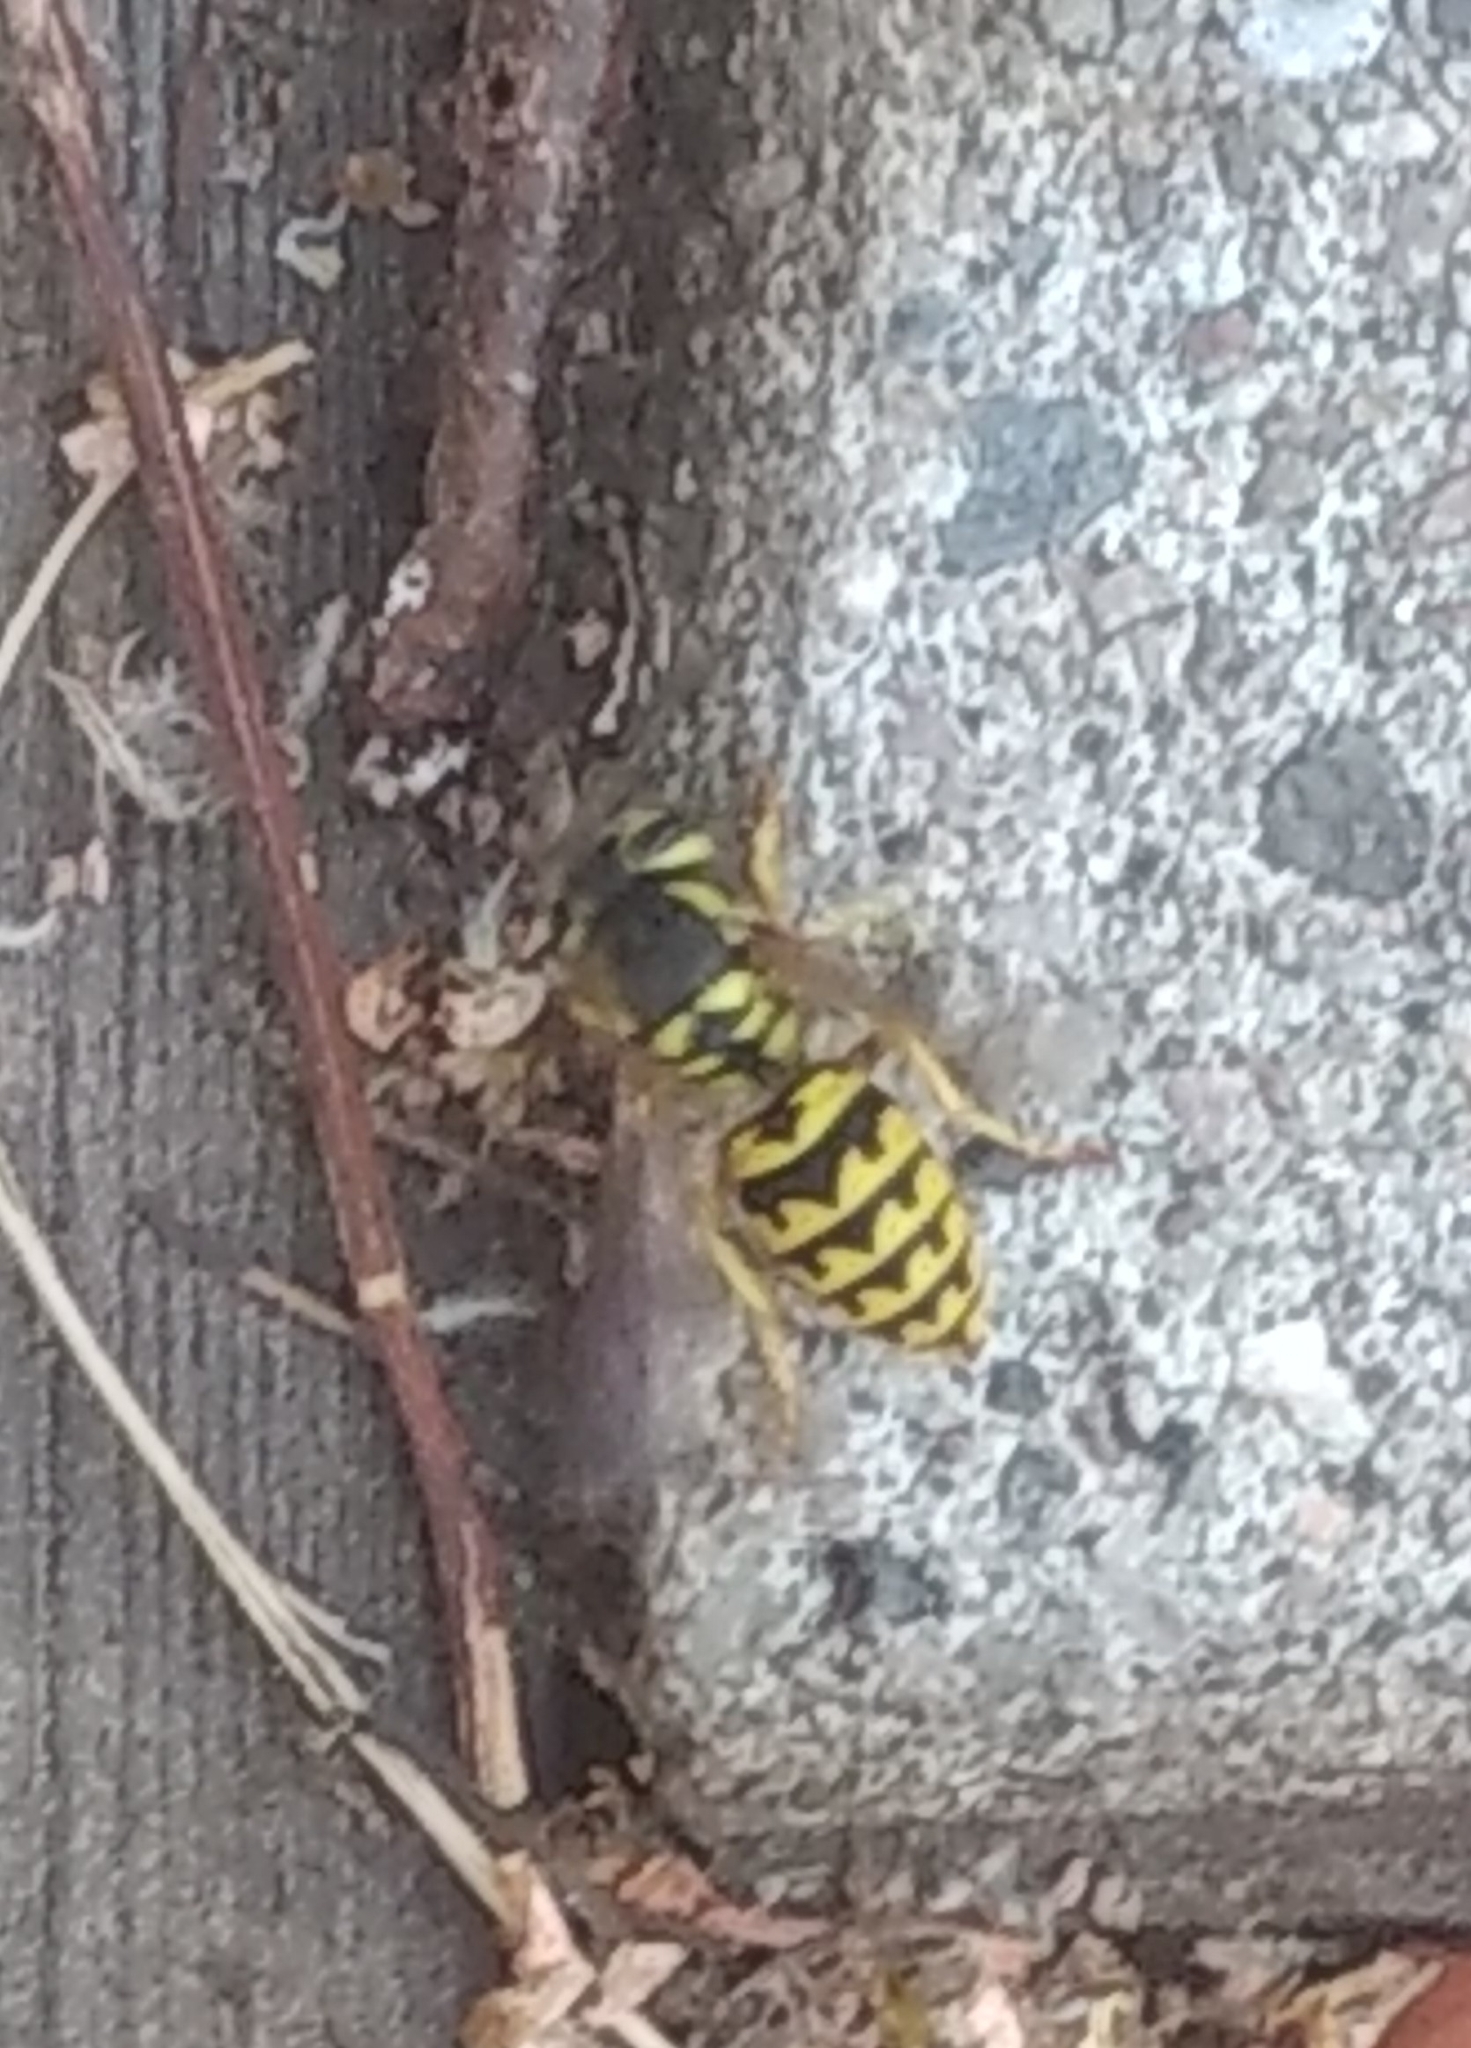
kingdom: Animalia
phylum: Arthropoda
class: Insecta
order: Hymenoptera
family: Vespidae
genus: Vespula
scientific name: Vespula pensylvanica
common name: Western yellowjacket
